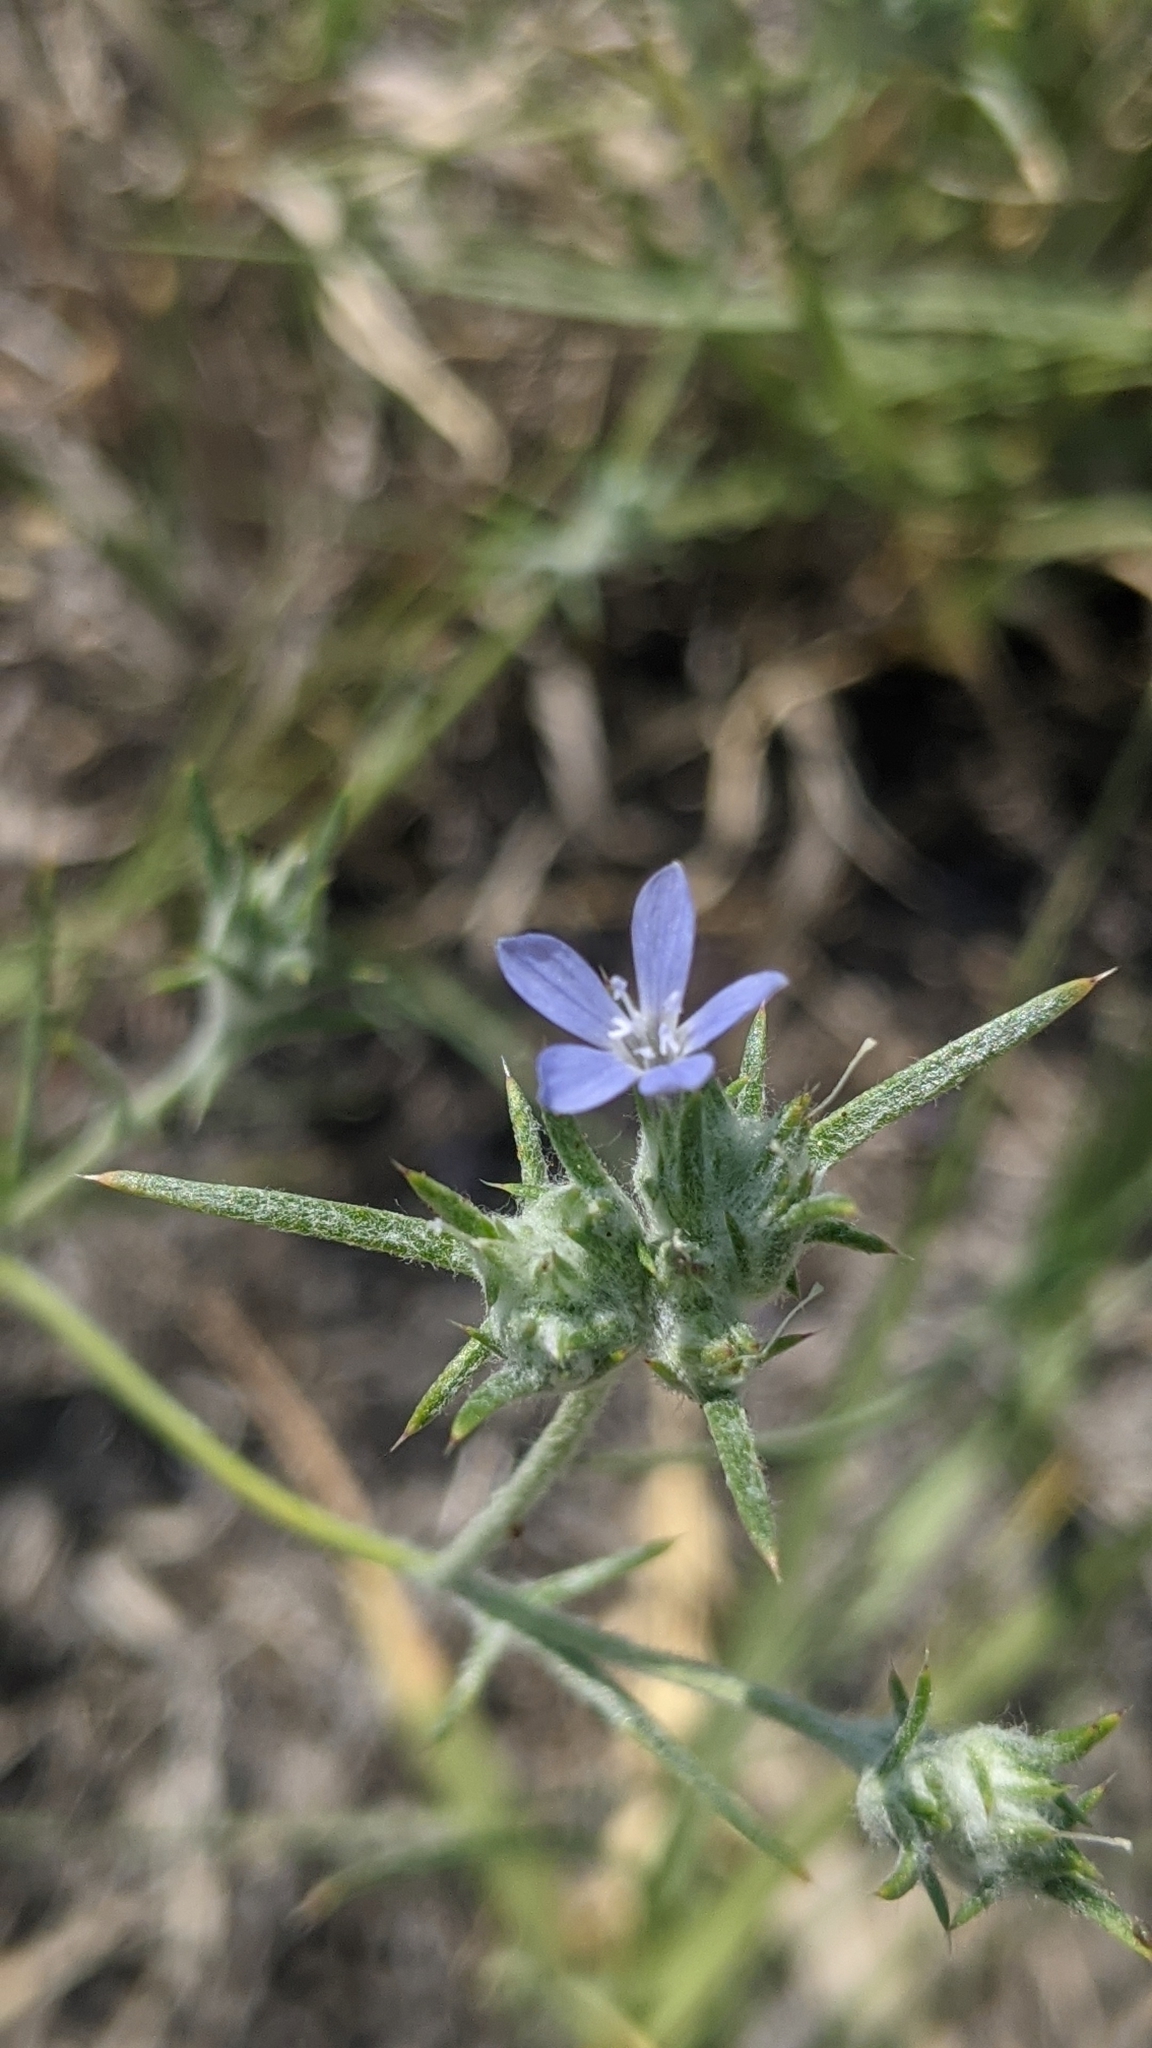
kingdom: Plantae
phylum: Tracheophyta
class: Magnoliopsida
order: Ericales
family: Polemoniaceae
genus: Eriastrum
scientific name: Eriastrum wilcoxii
